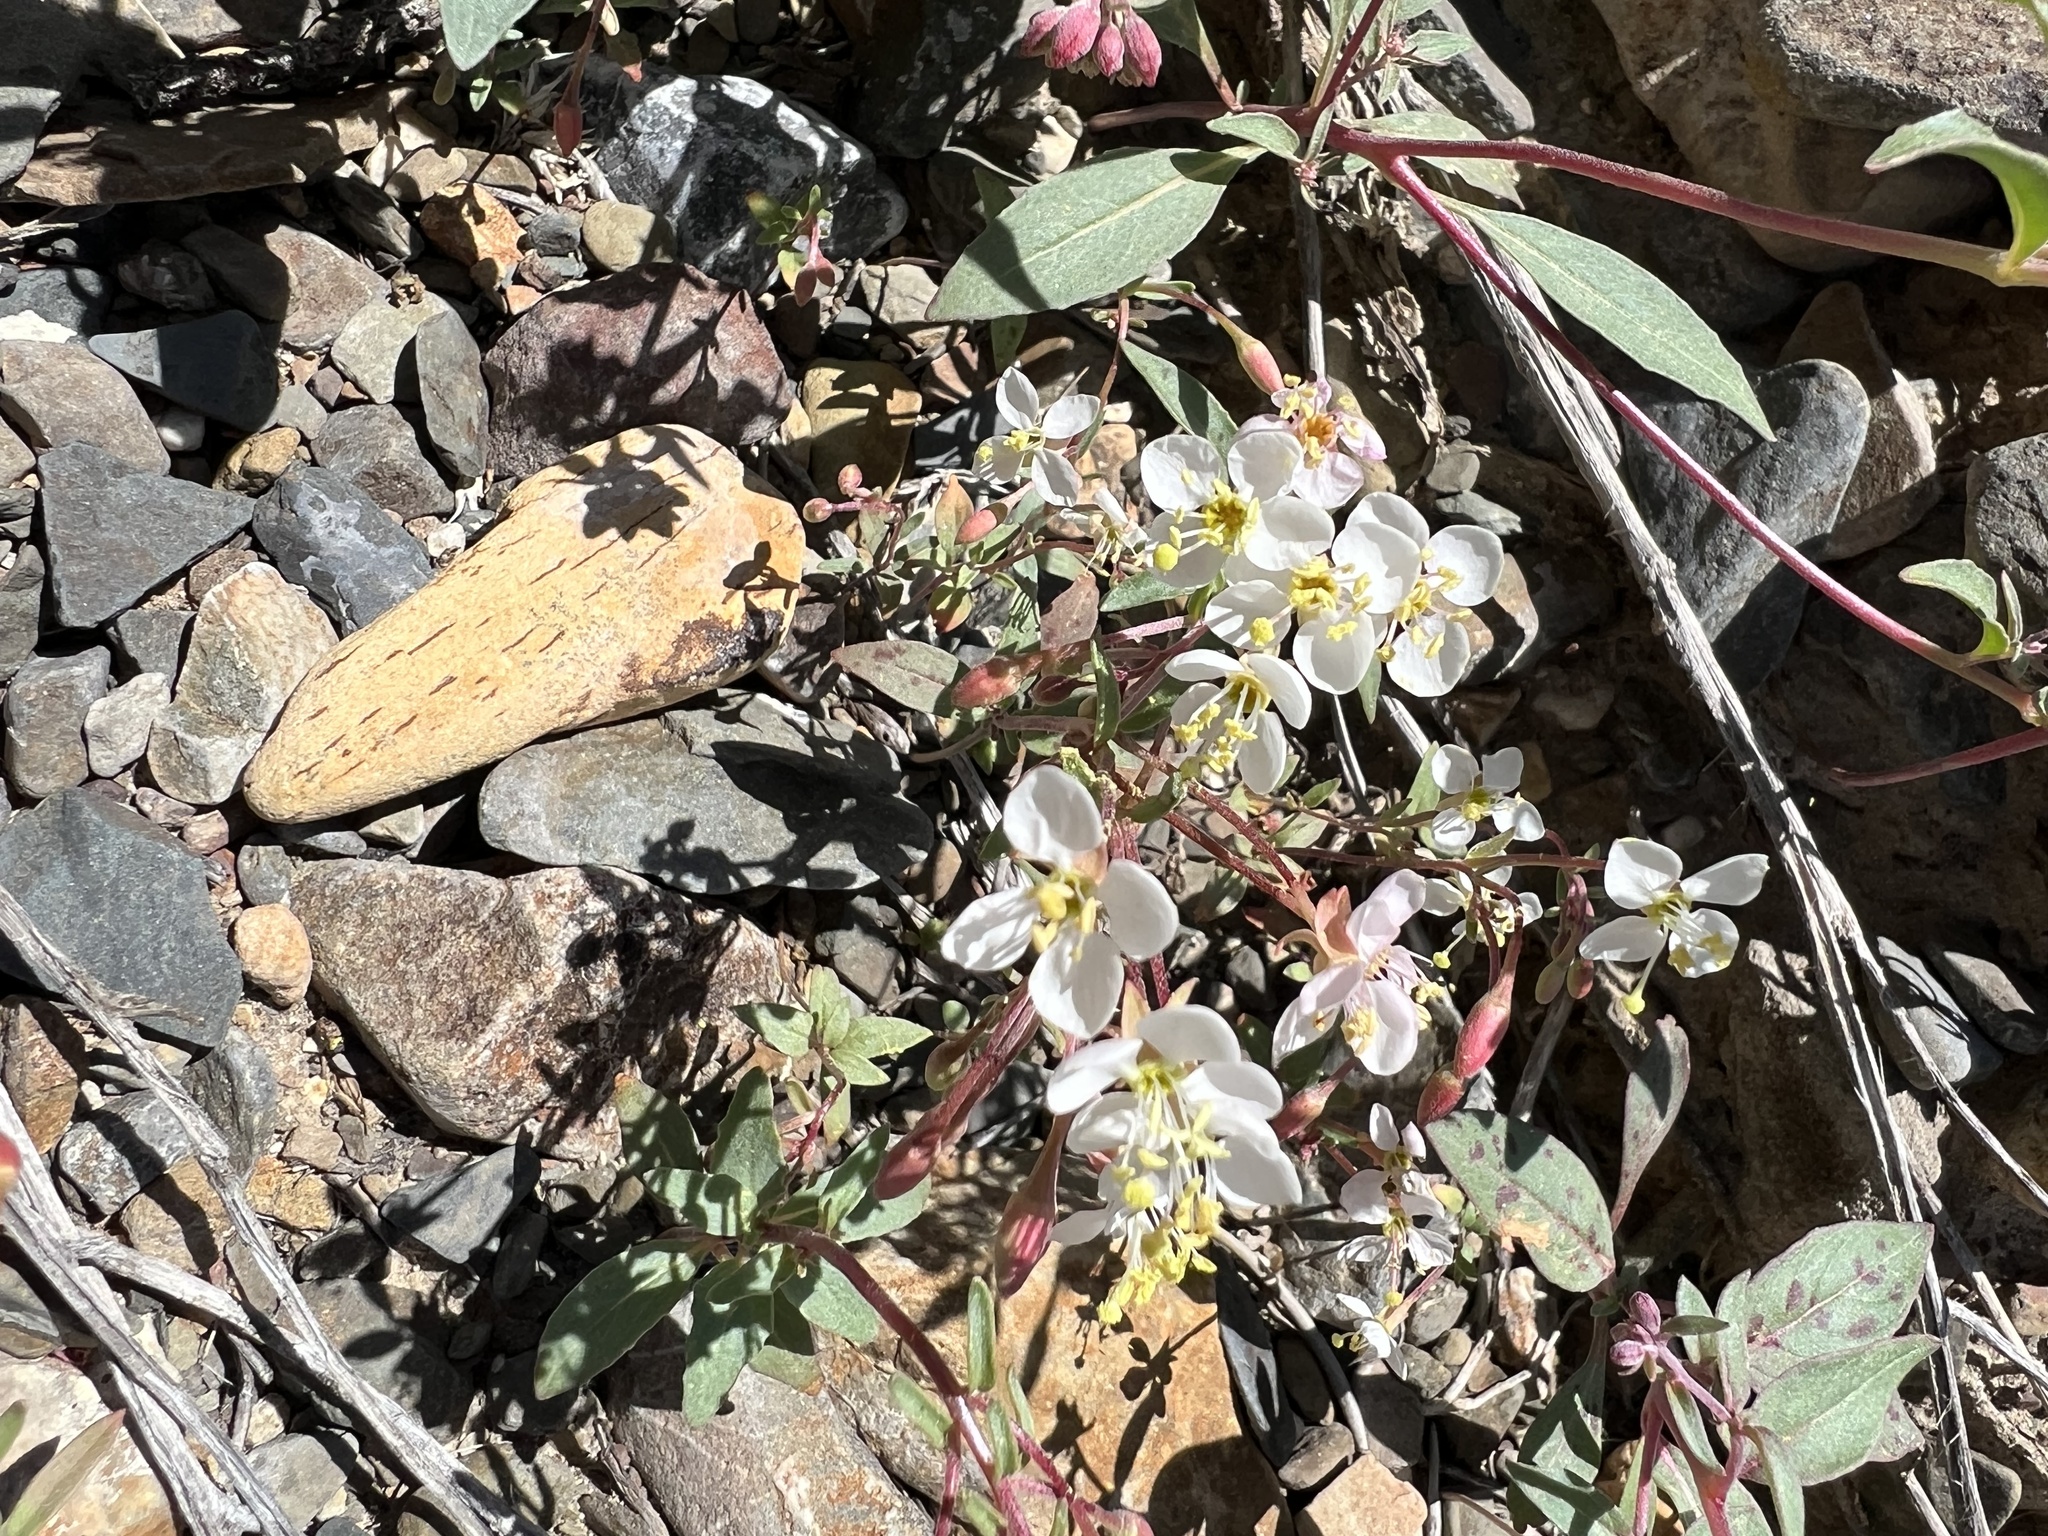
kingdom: Plantae
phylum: Tracheophyta
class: Magnoliopsida
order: Myrtales
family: Onagraceae
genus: Eremothera
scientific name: Eremothera boothii
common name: Booth's evening primrose
